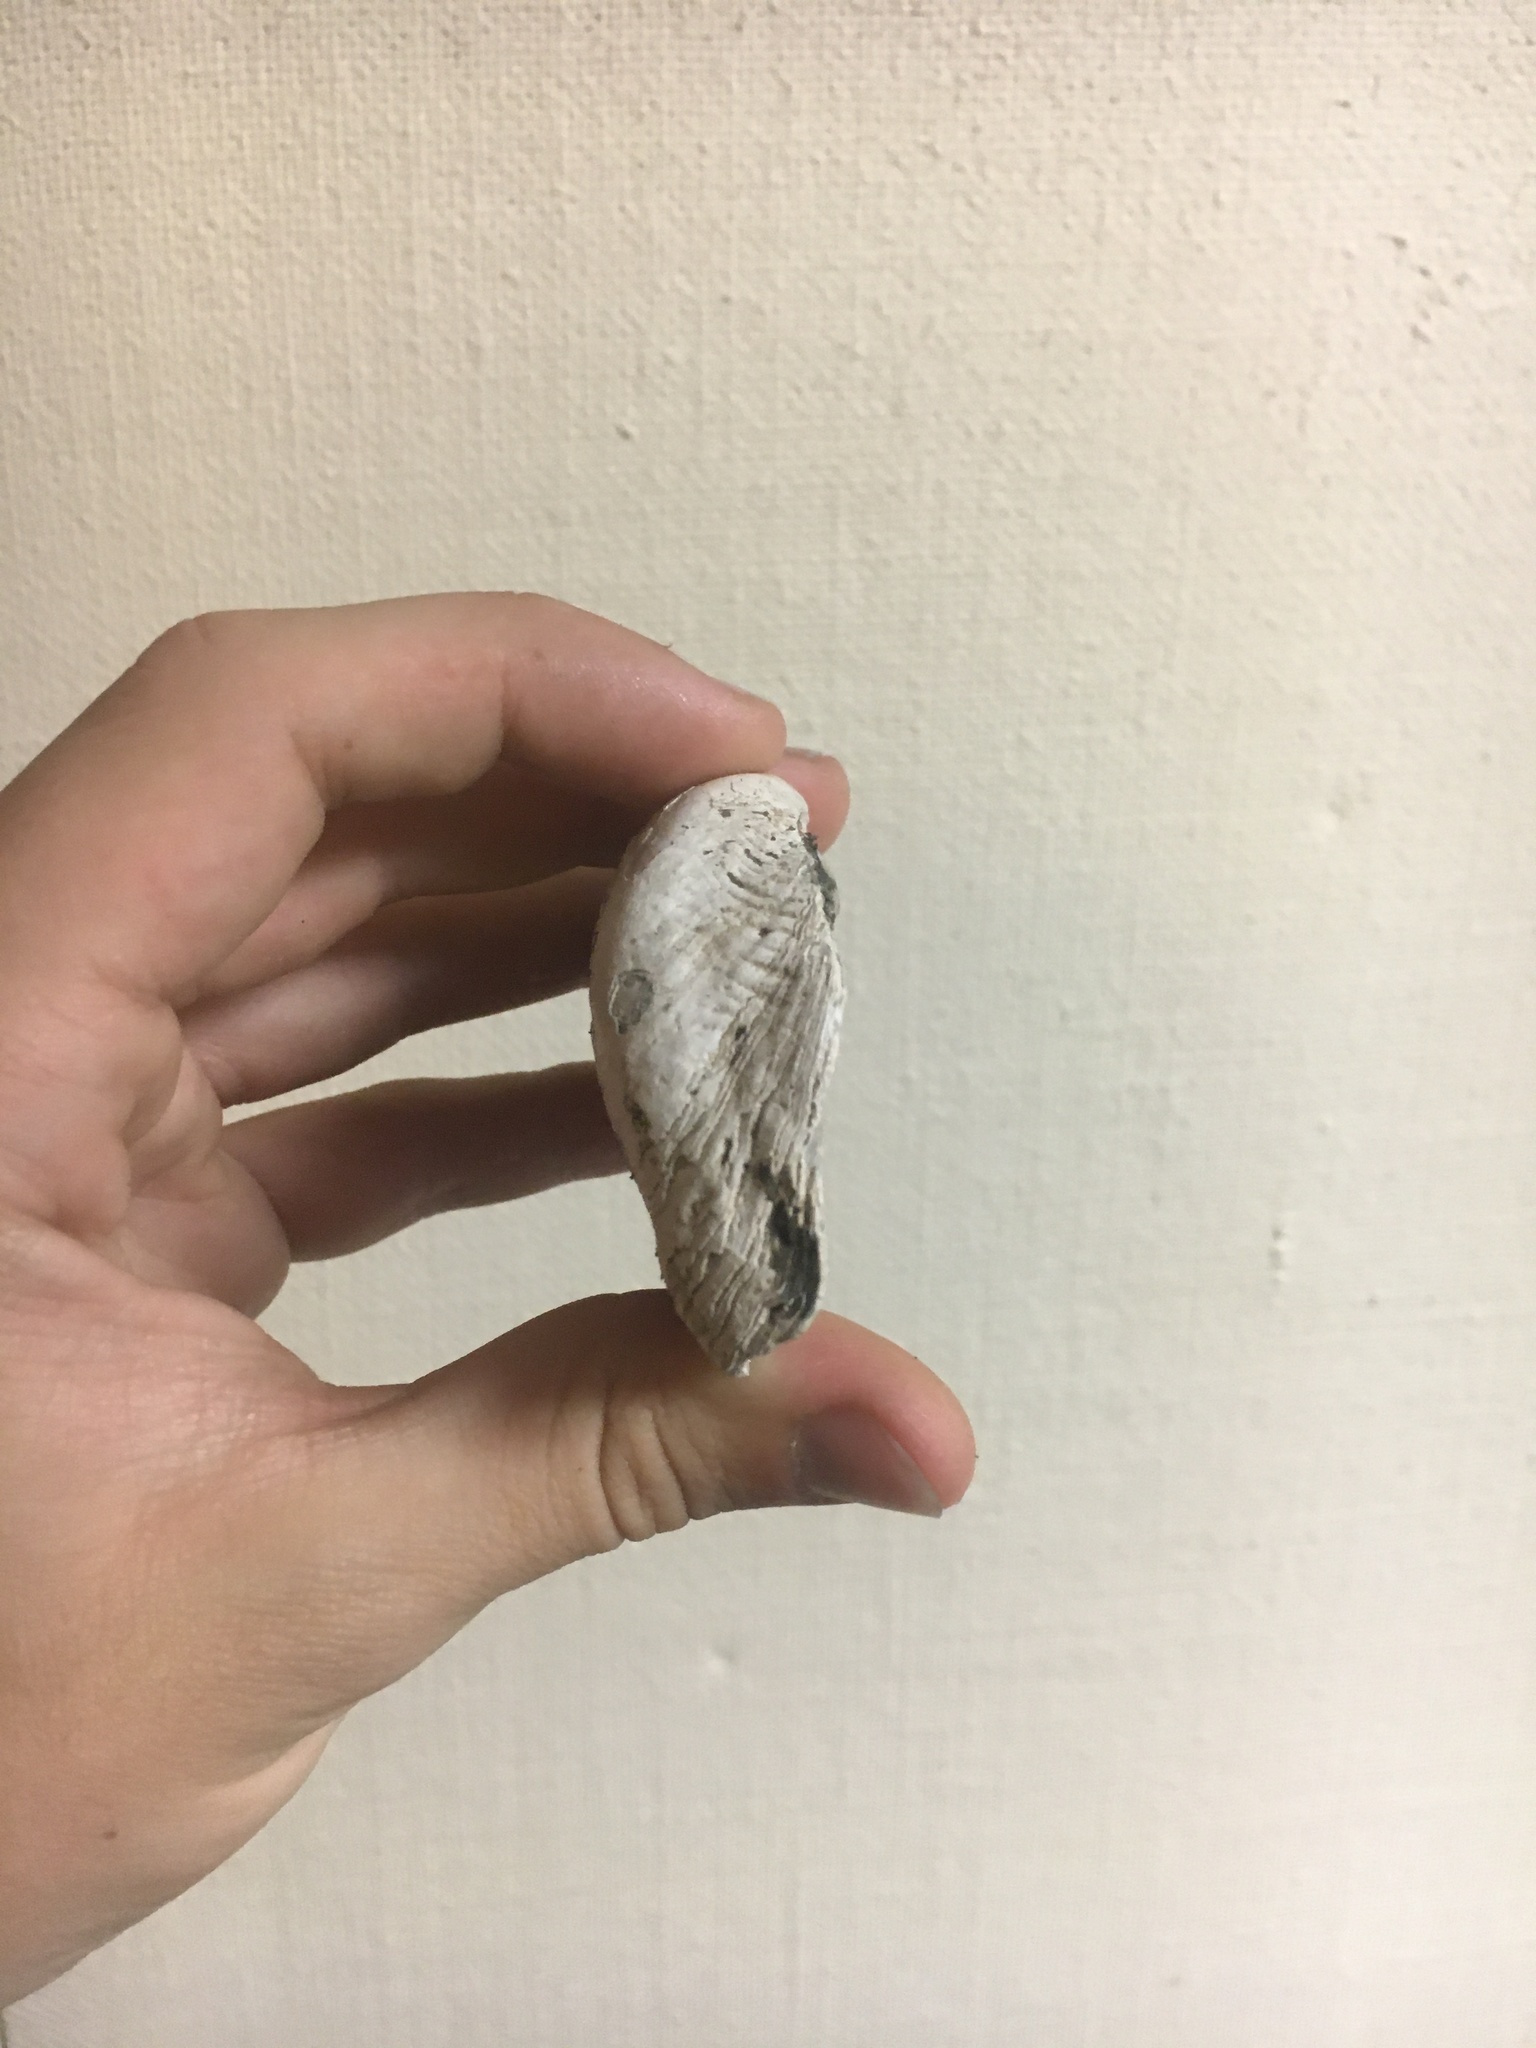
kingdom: Animalia
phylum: Mollusca
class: Bivalvia
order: Unionida
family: Unionidae
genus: Alasmidonta
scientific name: Alasmidonta marginata
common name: Elktoe
